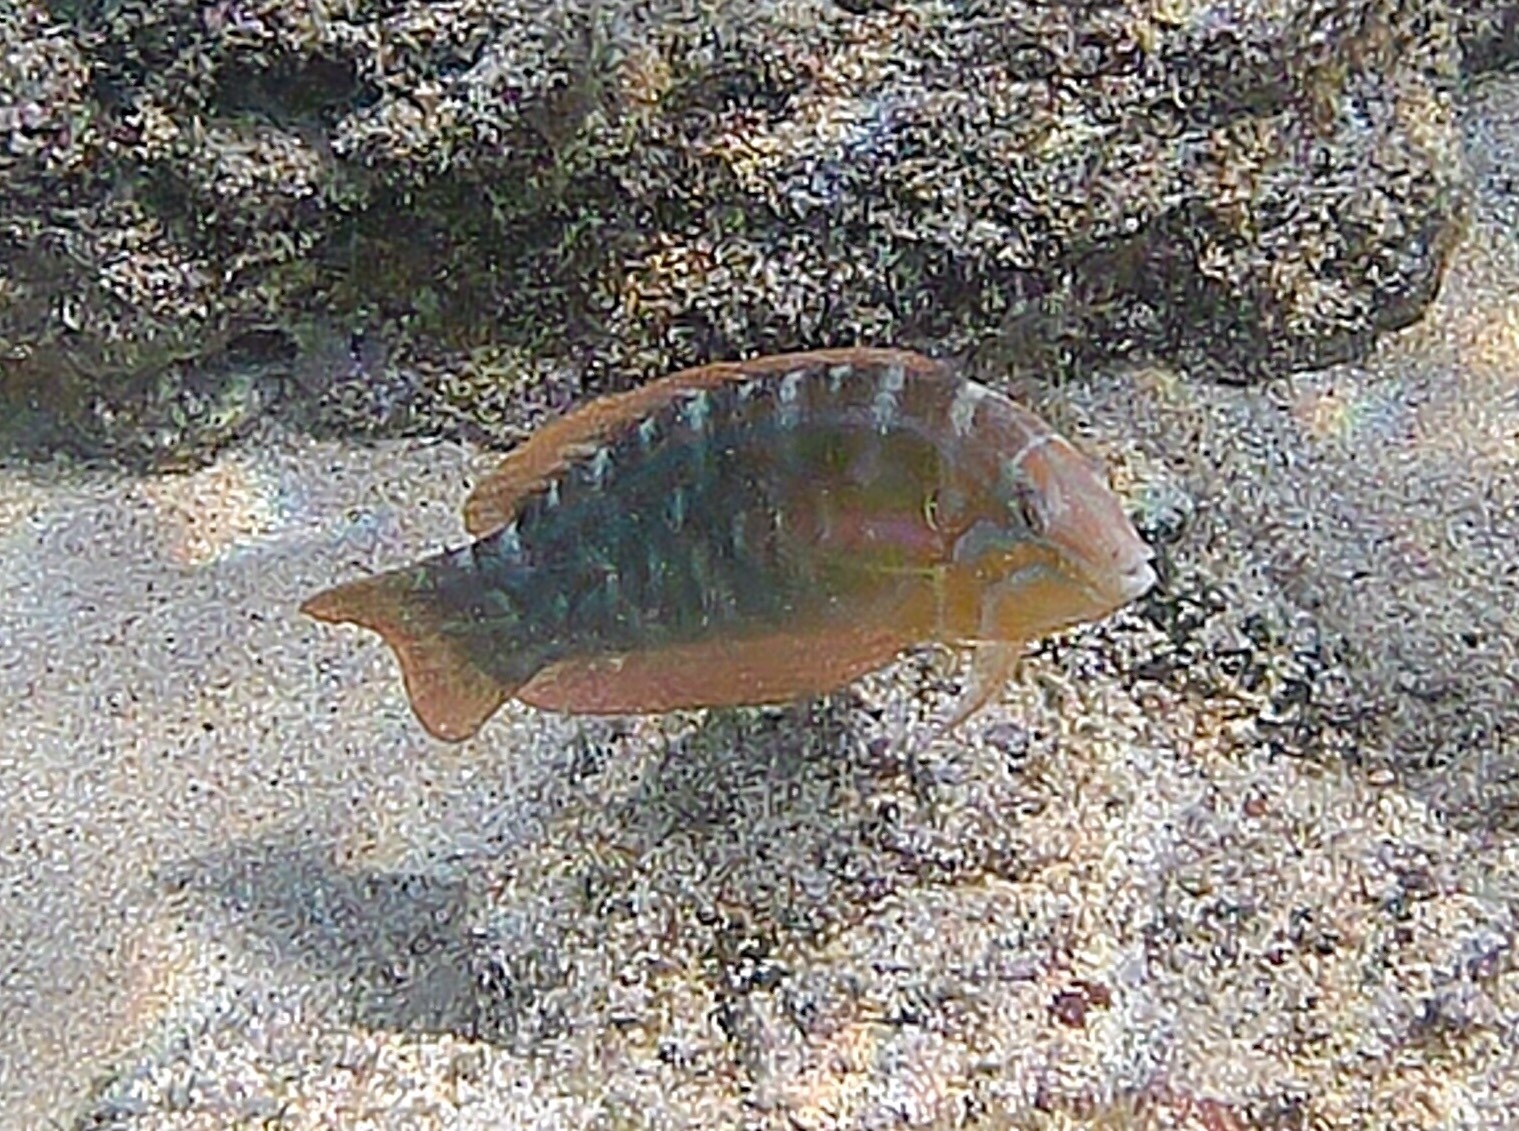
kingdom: Animalia
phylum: Chordata
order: Perciformes
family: Labridae
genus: Coris
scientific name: Coris venusta
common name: Elegant coris
